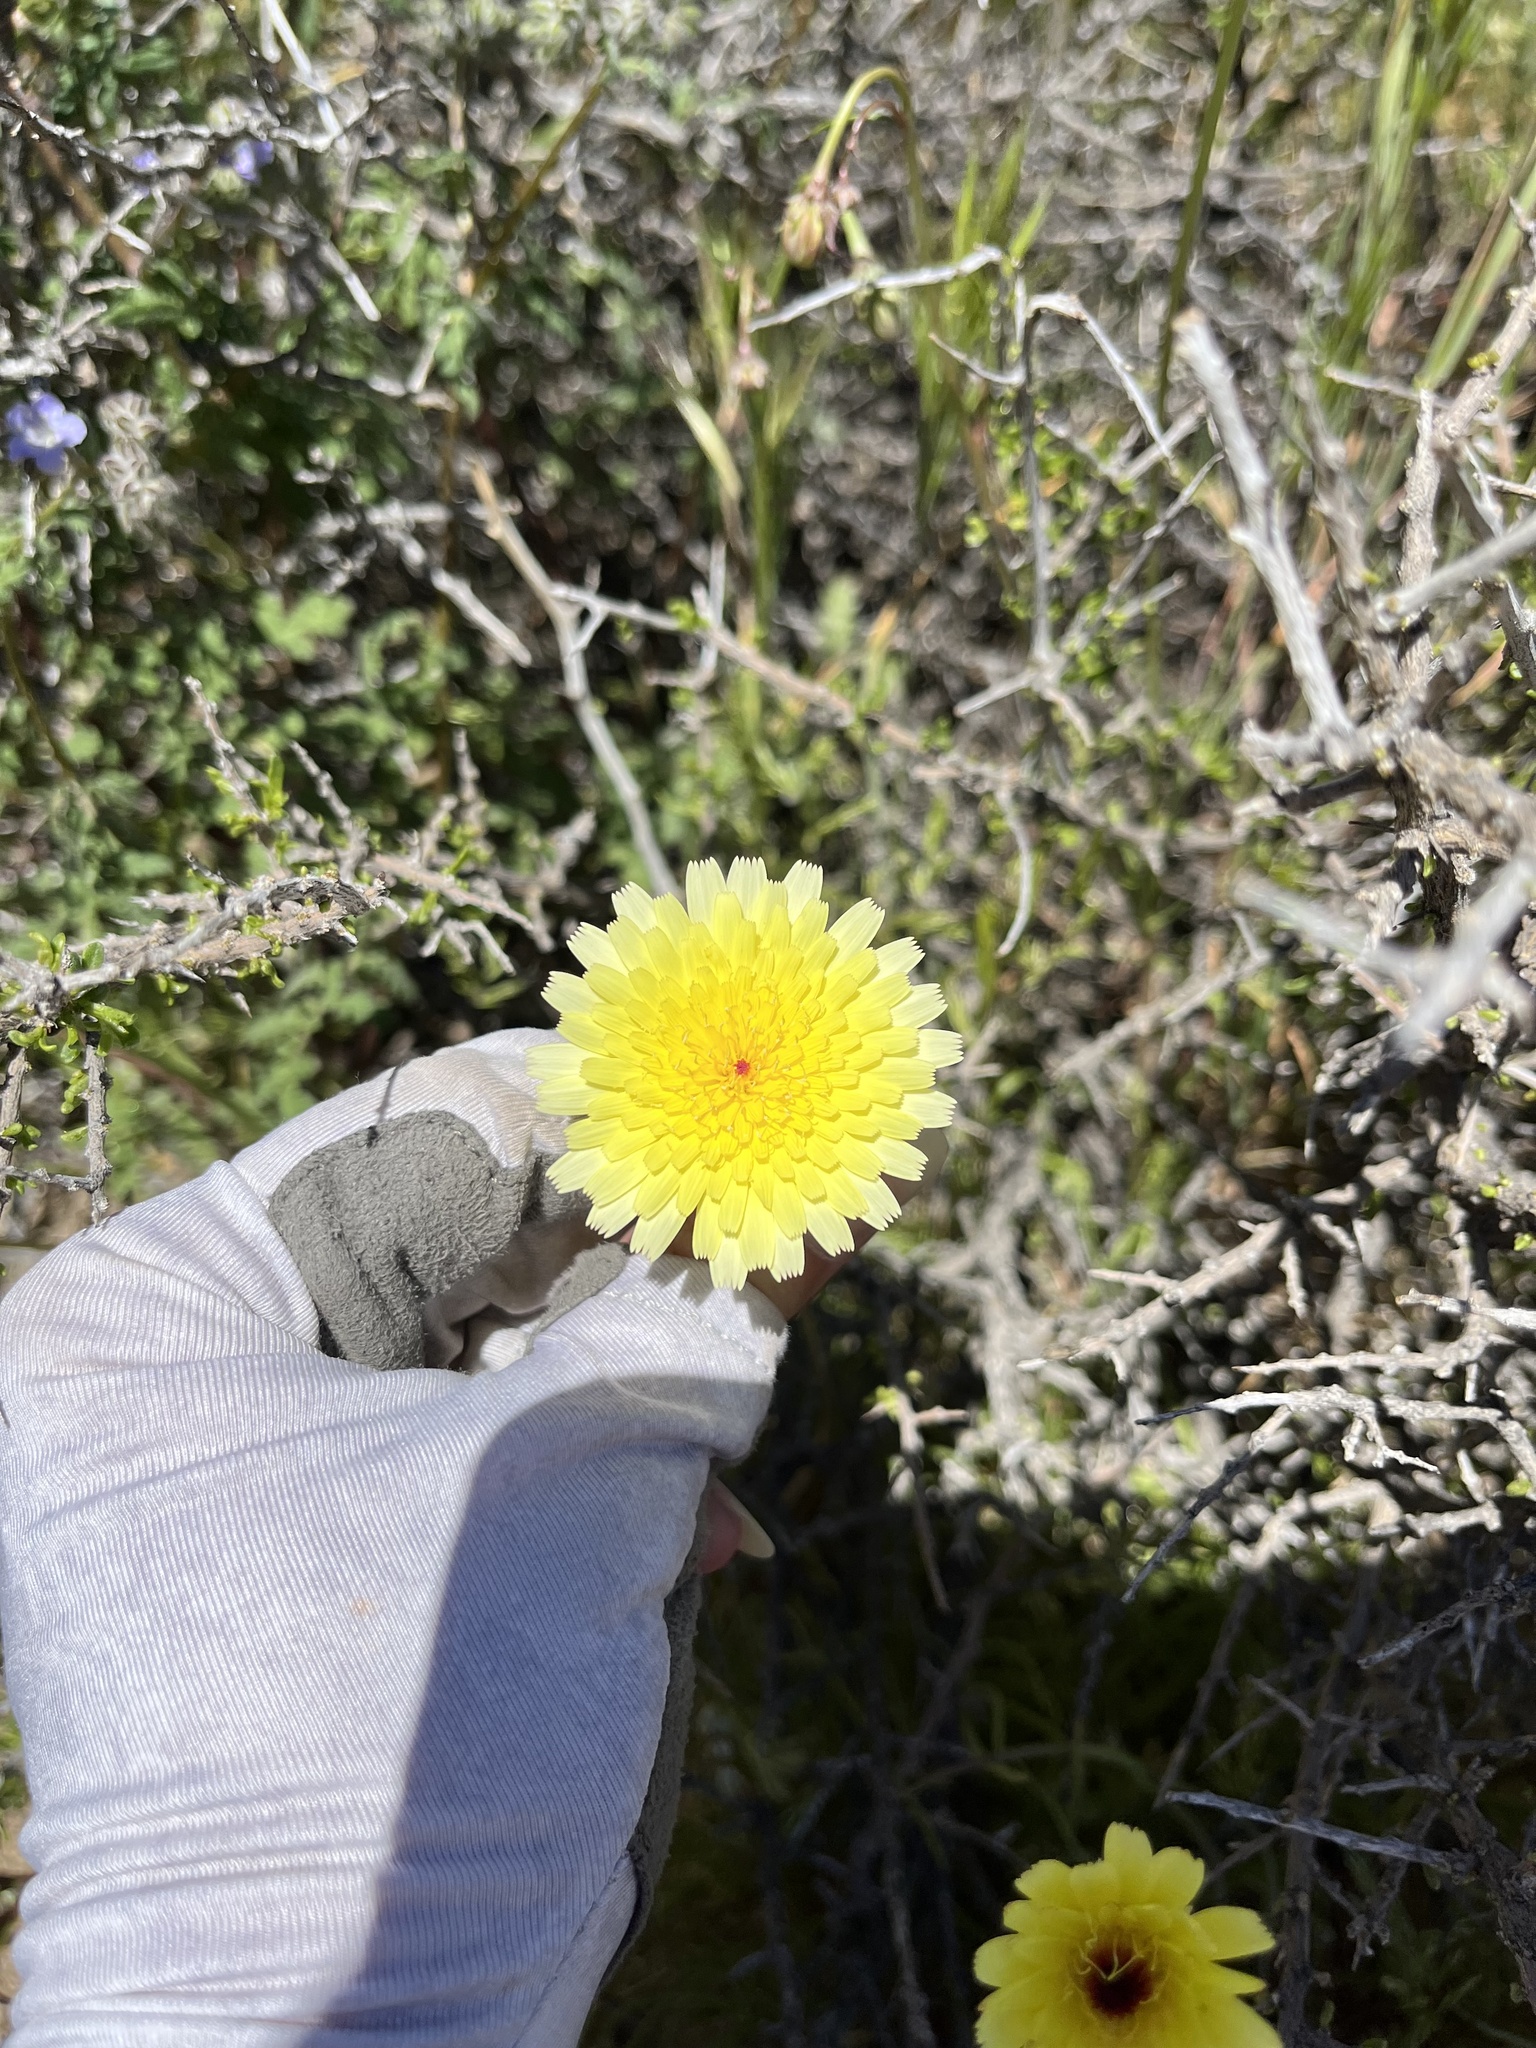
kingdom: Plantae
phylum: Tracheophyta
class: Magnoliopsida
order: Asterales
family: Asteraceae
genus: Malacothrix
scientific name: Malacothrix glabrata
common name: Smooth desert-dandelion
